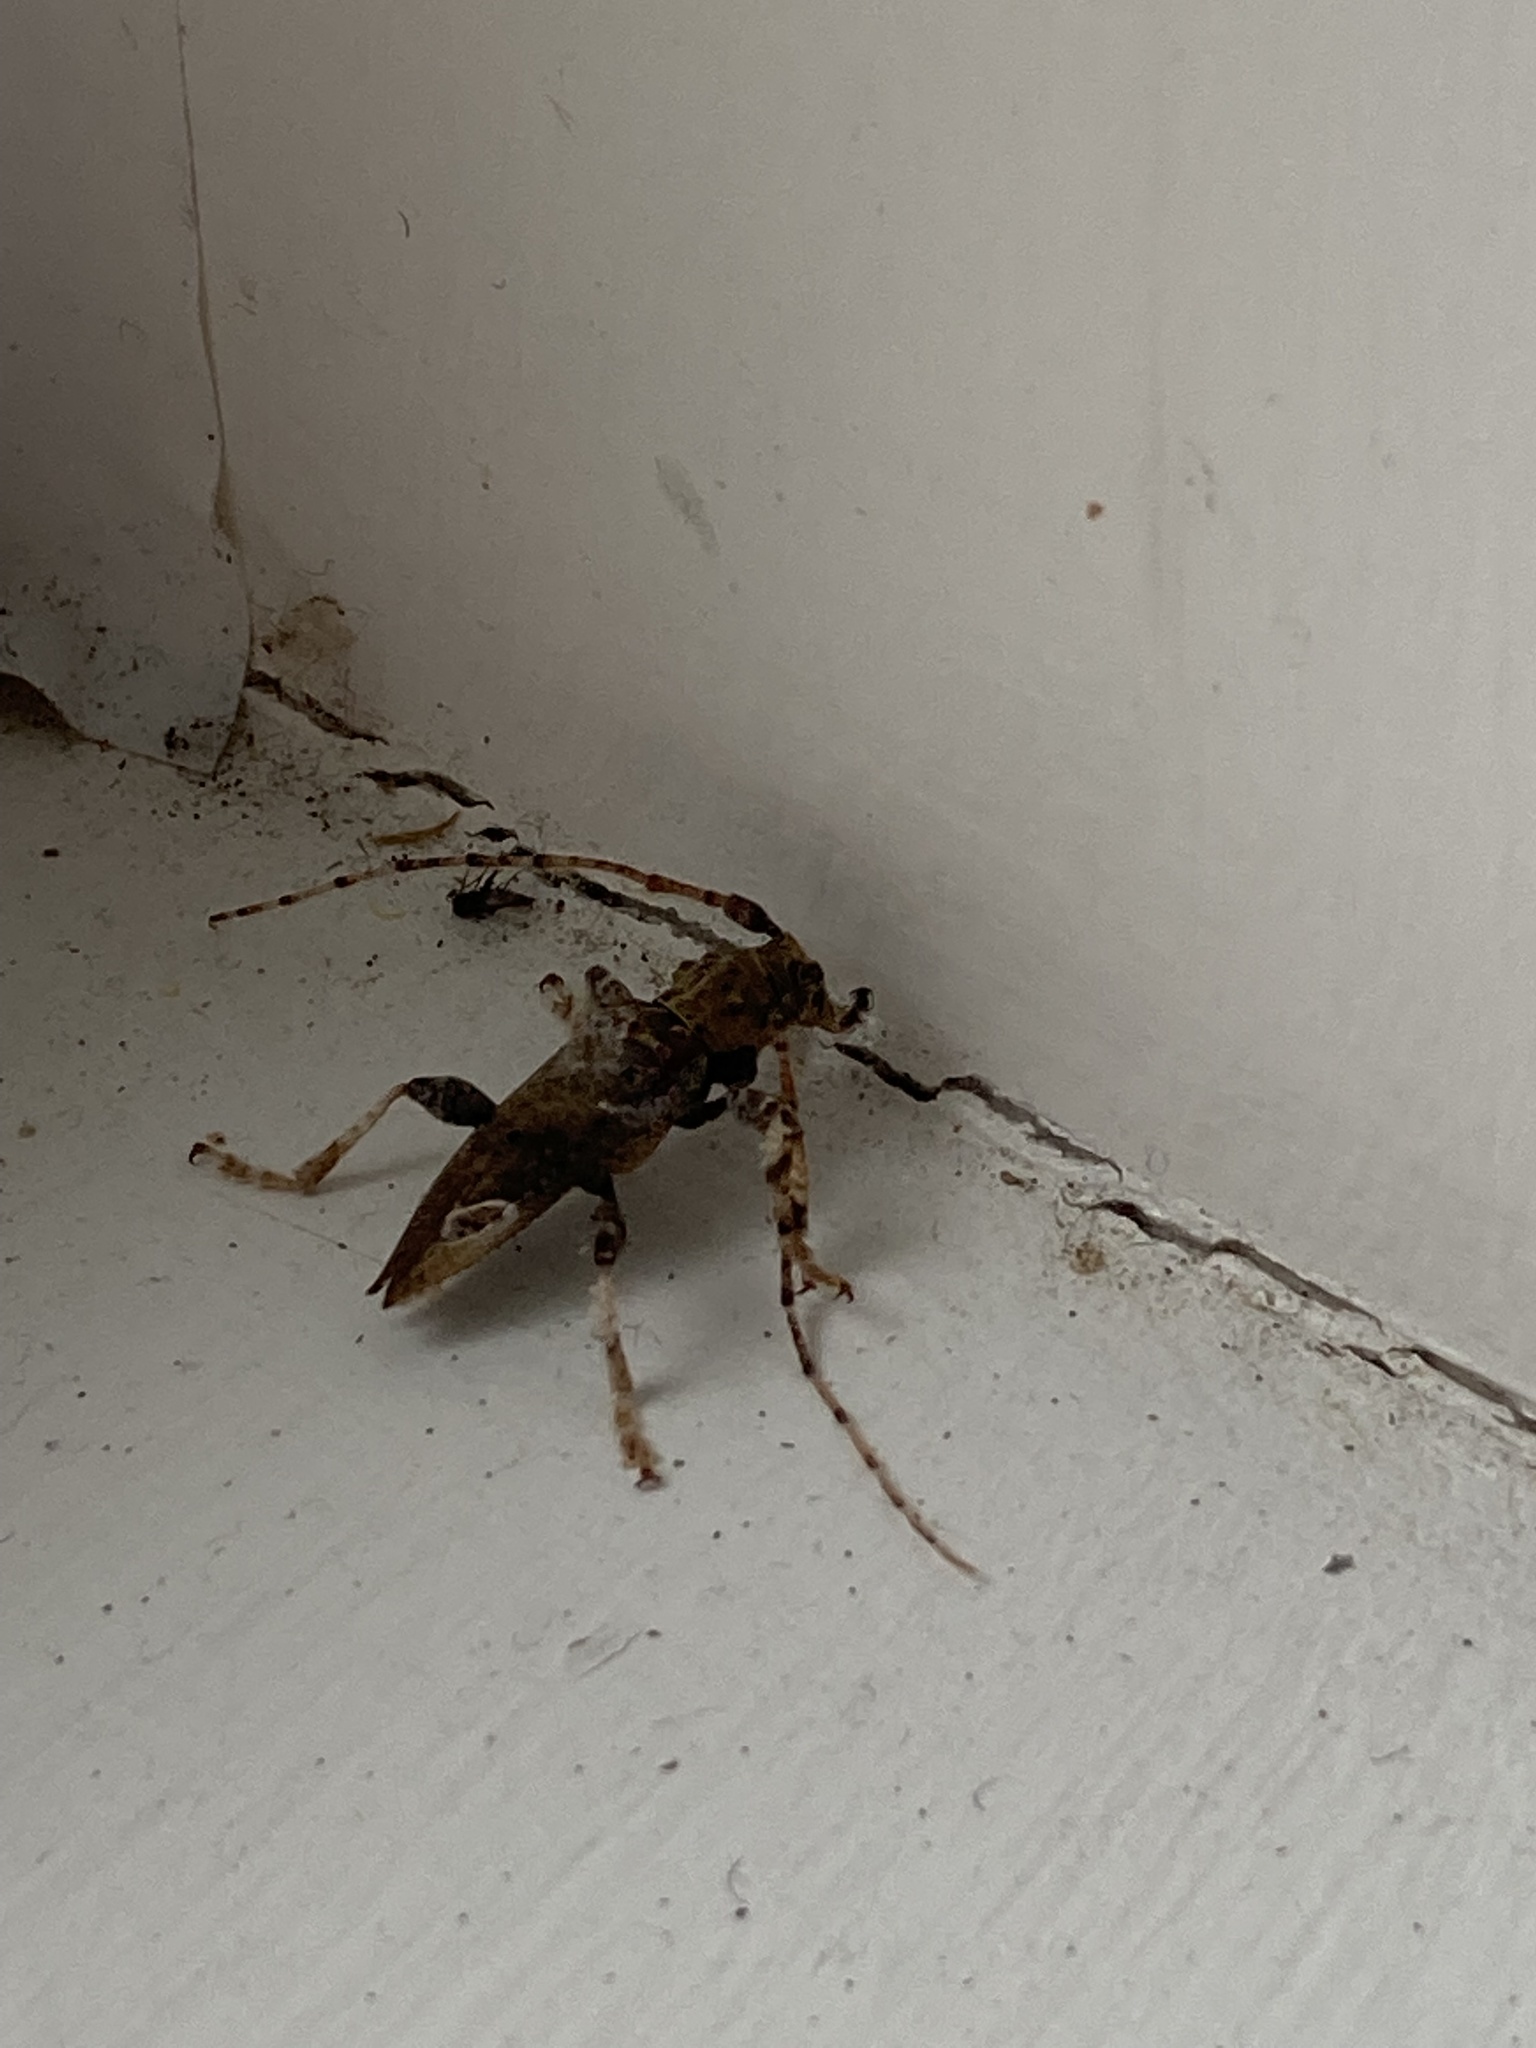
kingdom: Animalia
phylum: Arthropoda
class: Insecta
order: Coleoptera
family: Cerambycidae
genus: Tetrorea
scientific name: Tetrorea cilipes
